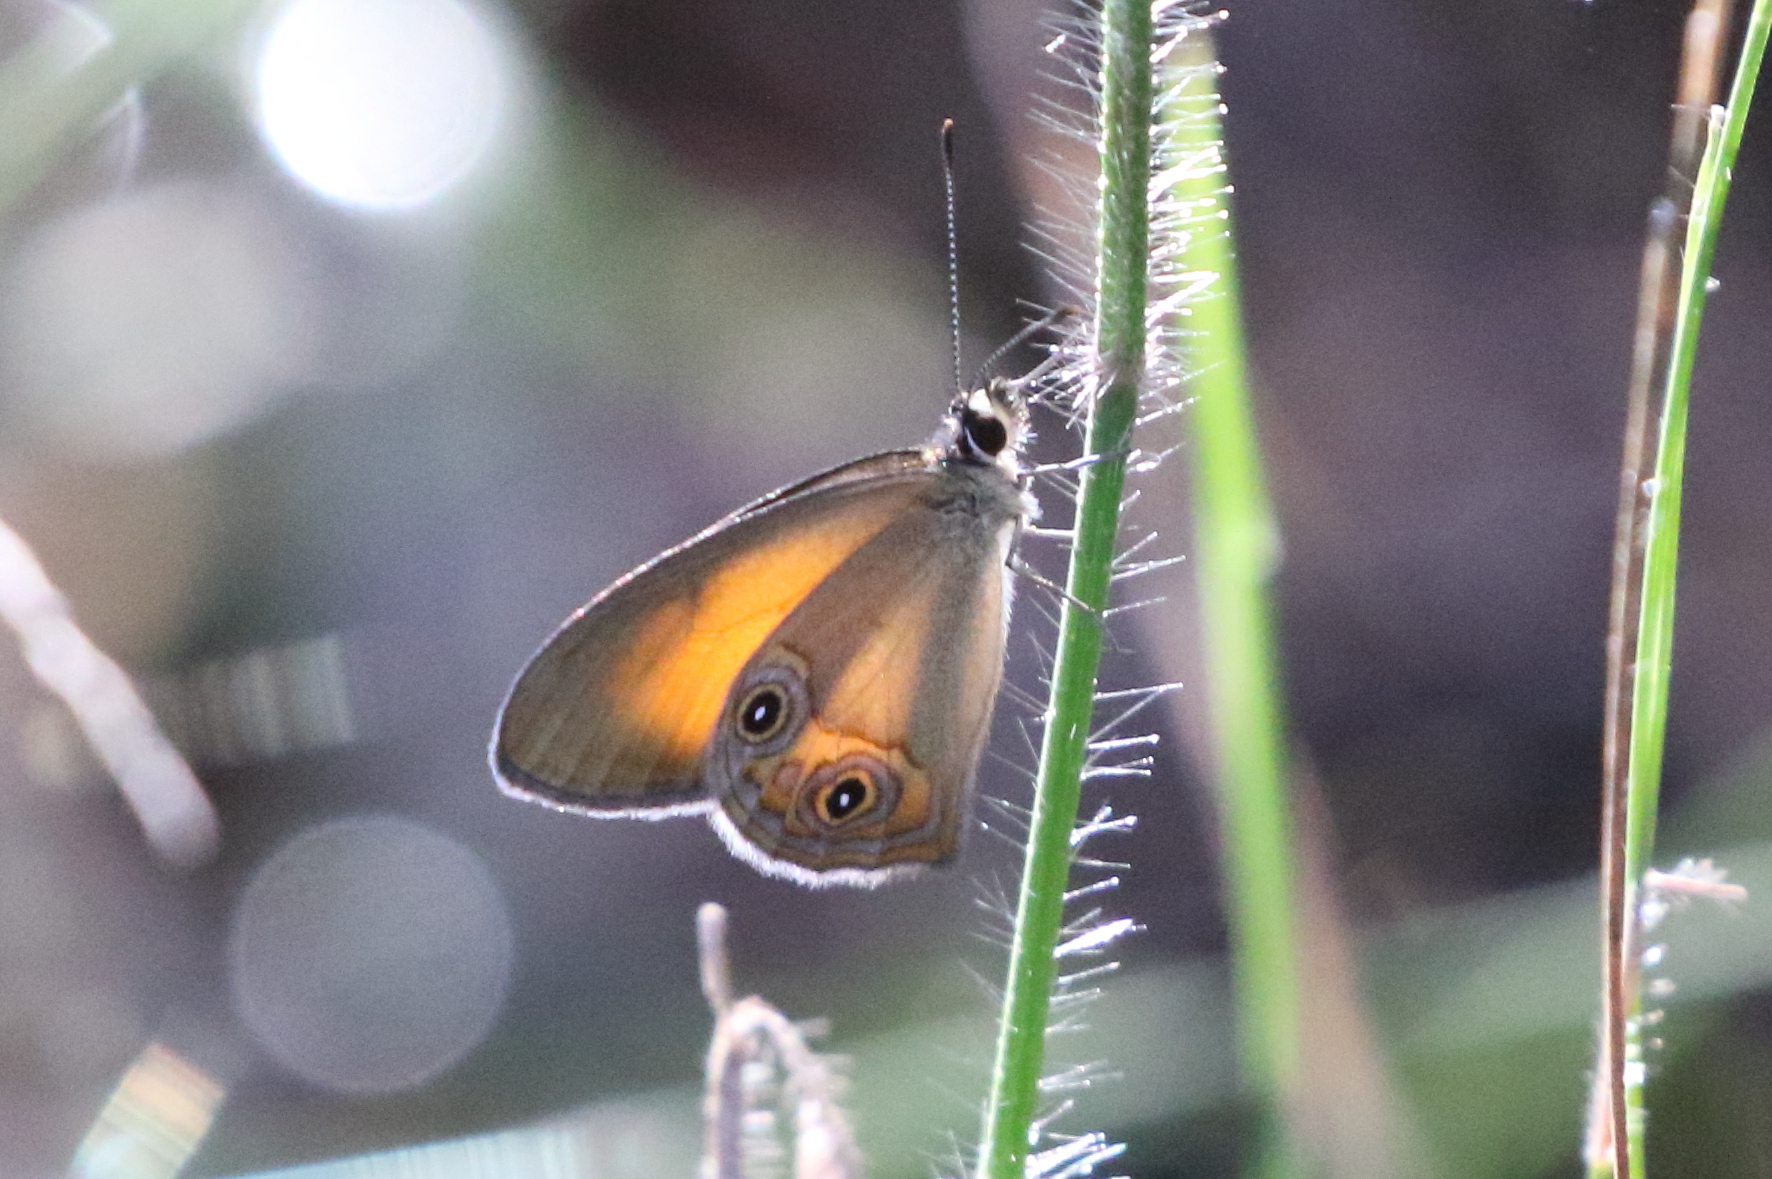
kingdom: Animalia
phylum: Arthropoda
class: Insecta
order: Lepidoptera
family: Nymphalidae
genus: Hypocysta
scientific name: Hypocysta adiante
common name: Orange ringlet
